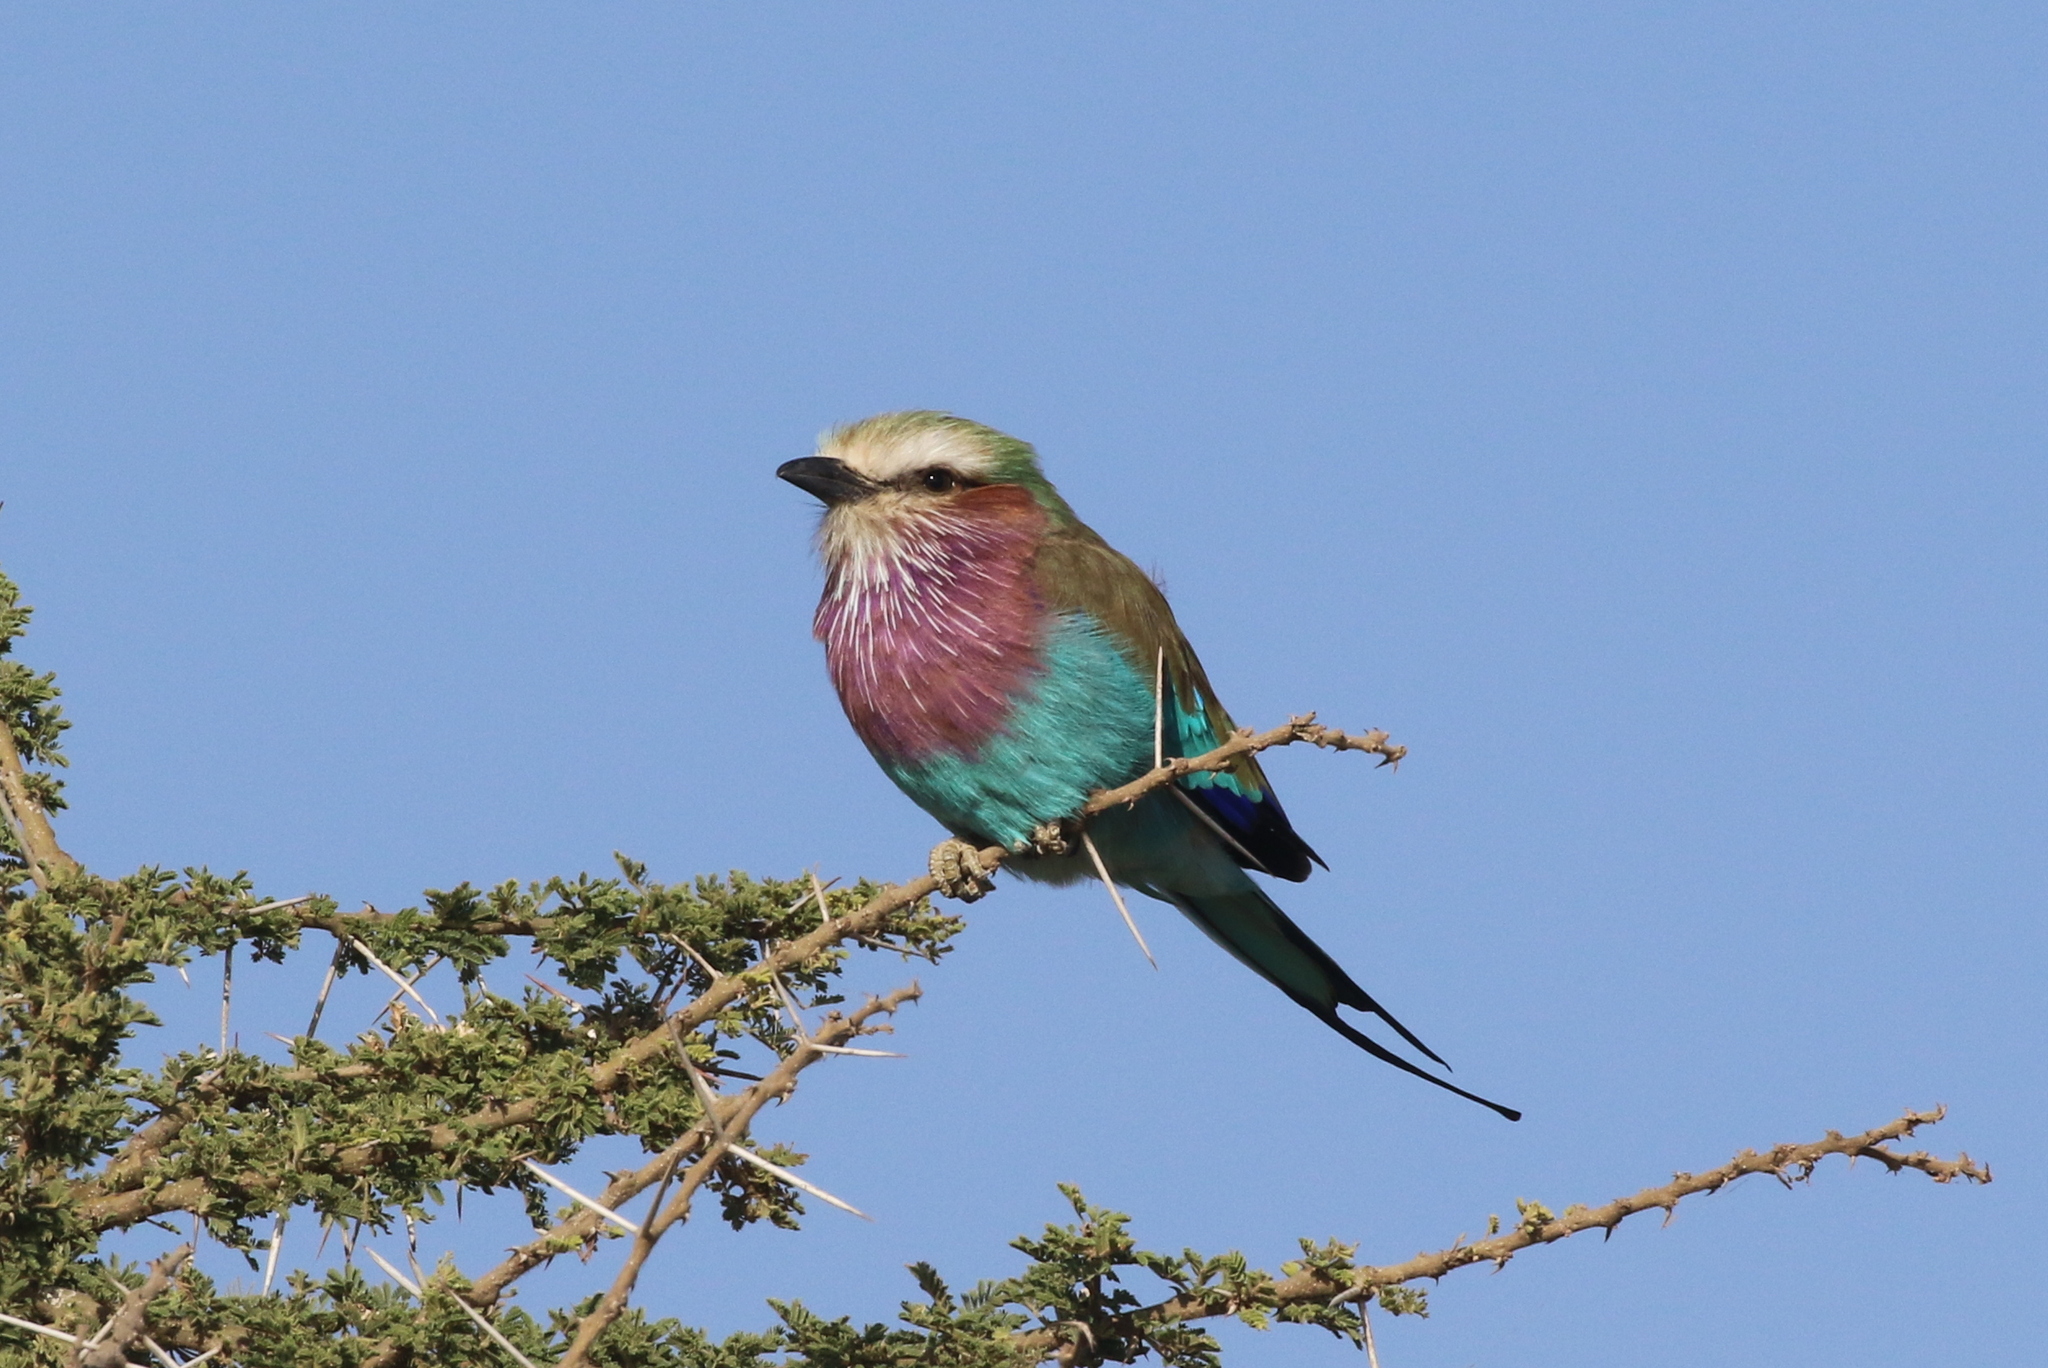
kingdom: Animalia
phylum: Chordata
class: Aves
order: Coraciiformes
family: Coraciidae
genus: Coracias
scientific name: Coracias caudatus
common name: Lilac-breasted roller
